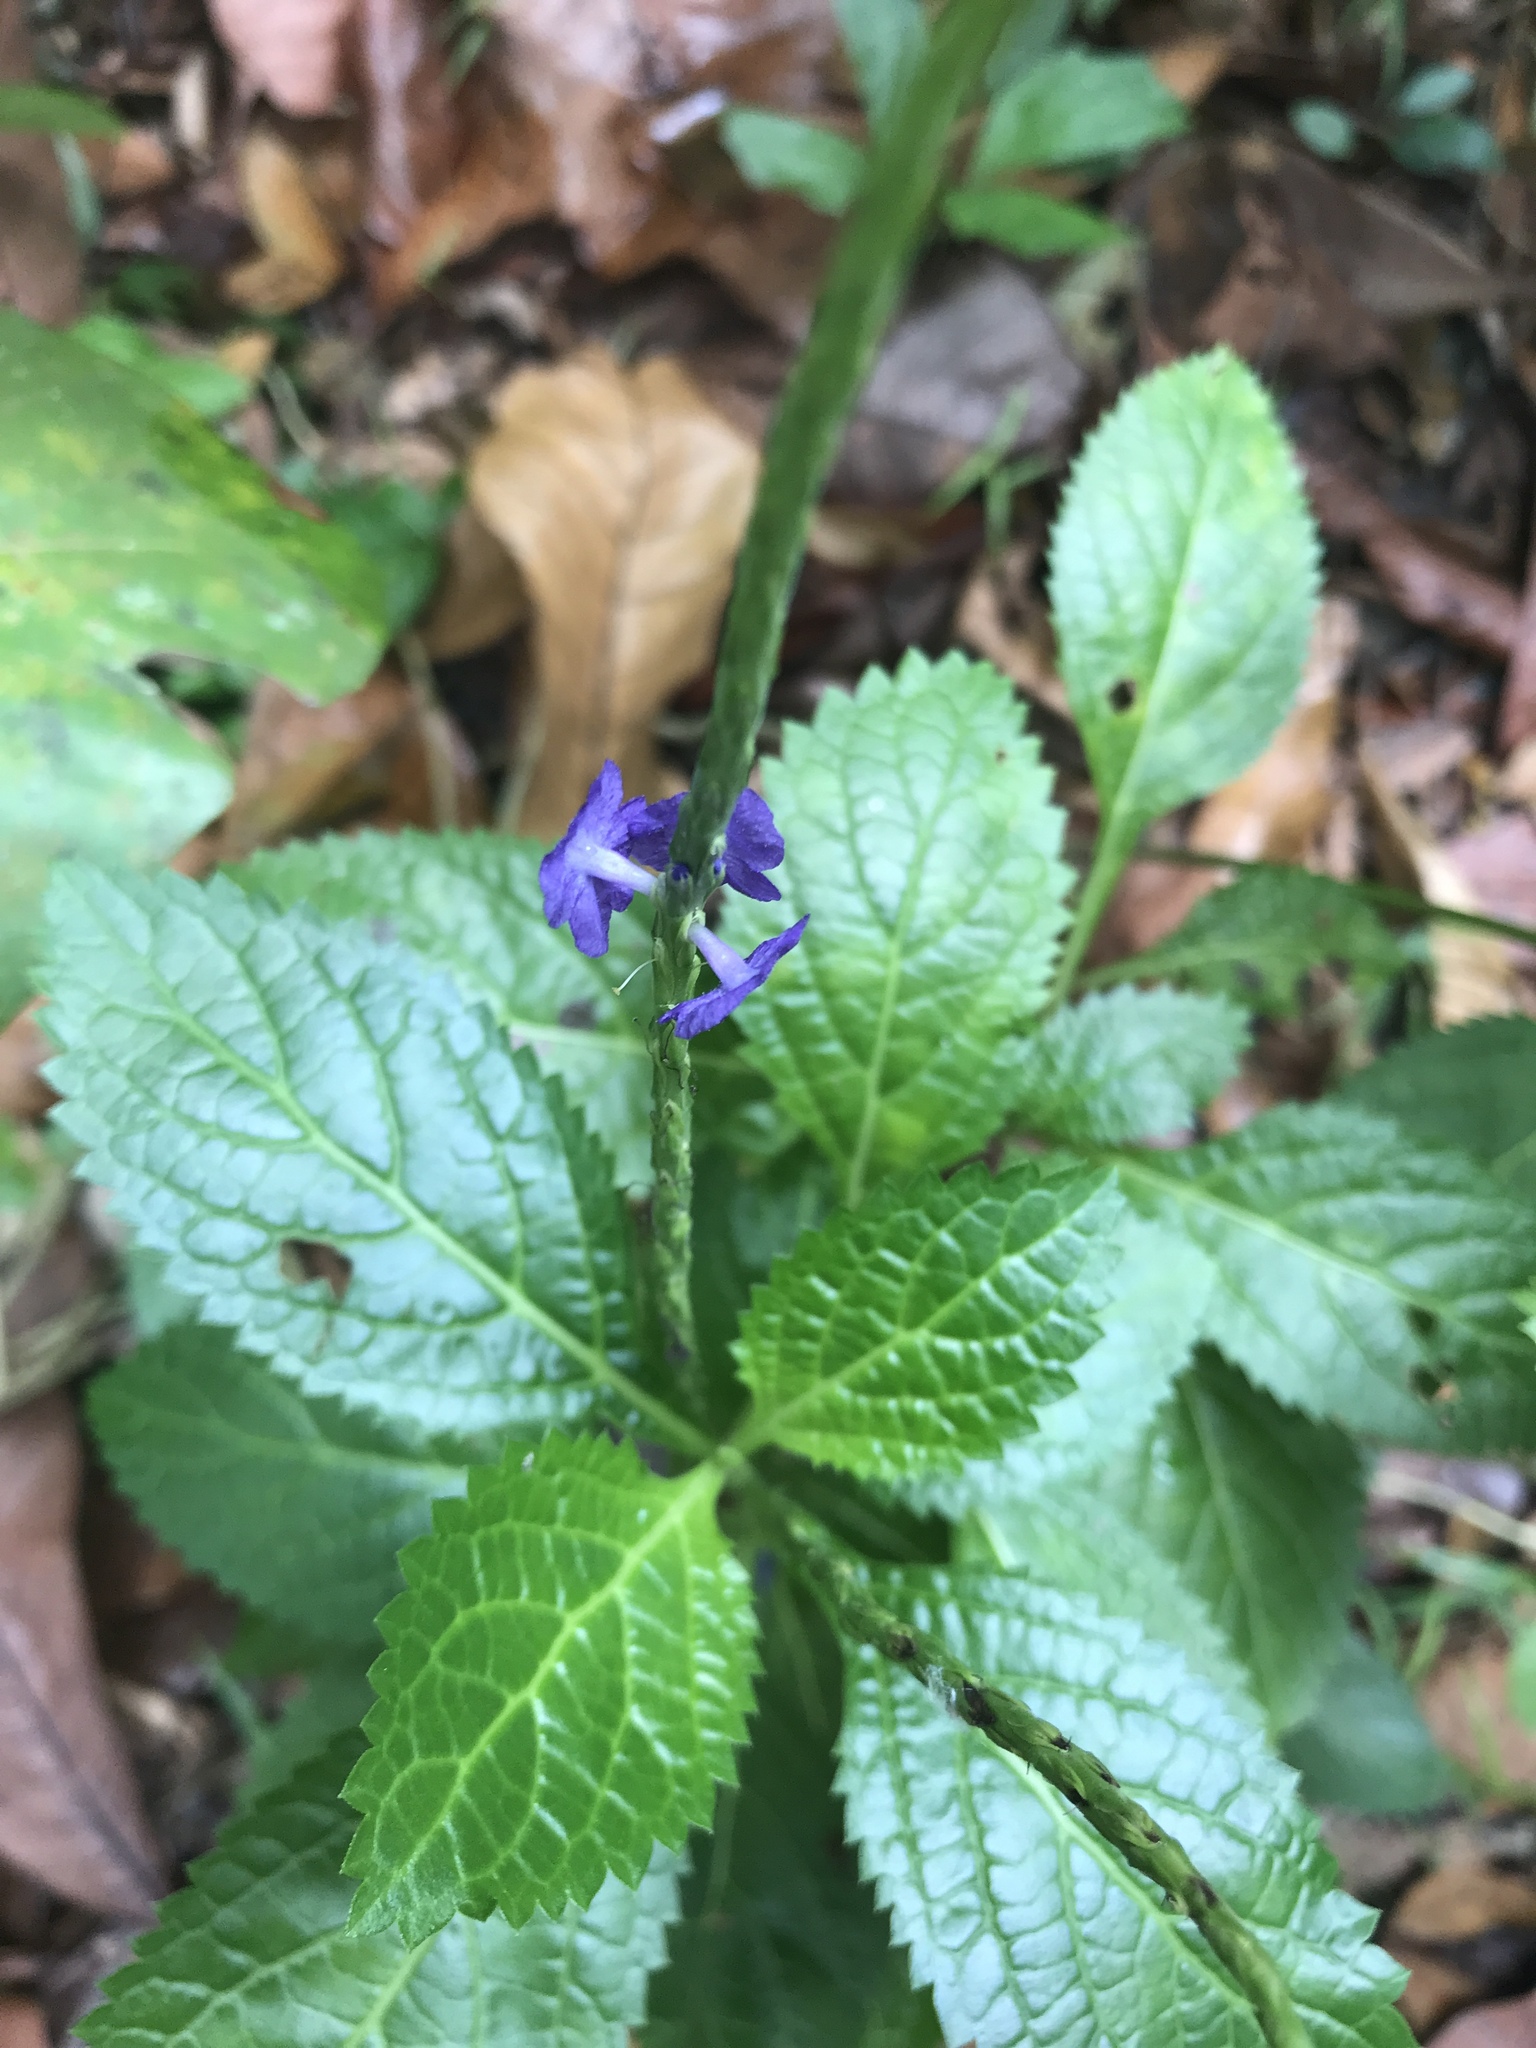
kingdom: Plantae
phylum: Tracheophyta
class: Magnoliopsida
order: Lamiales
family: Verbenaceae
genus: Stachytarpheta
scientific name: Stachytarpheta jamaicensis
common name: Light-blue snakeweed
